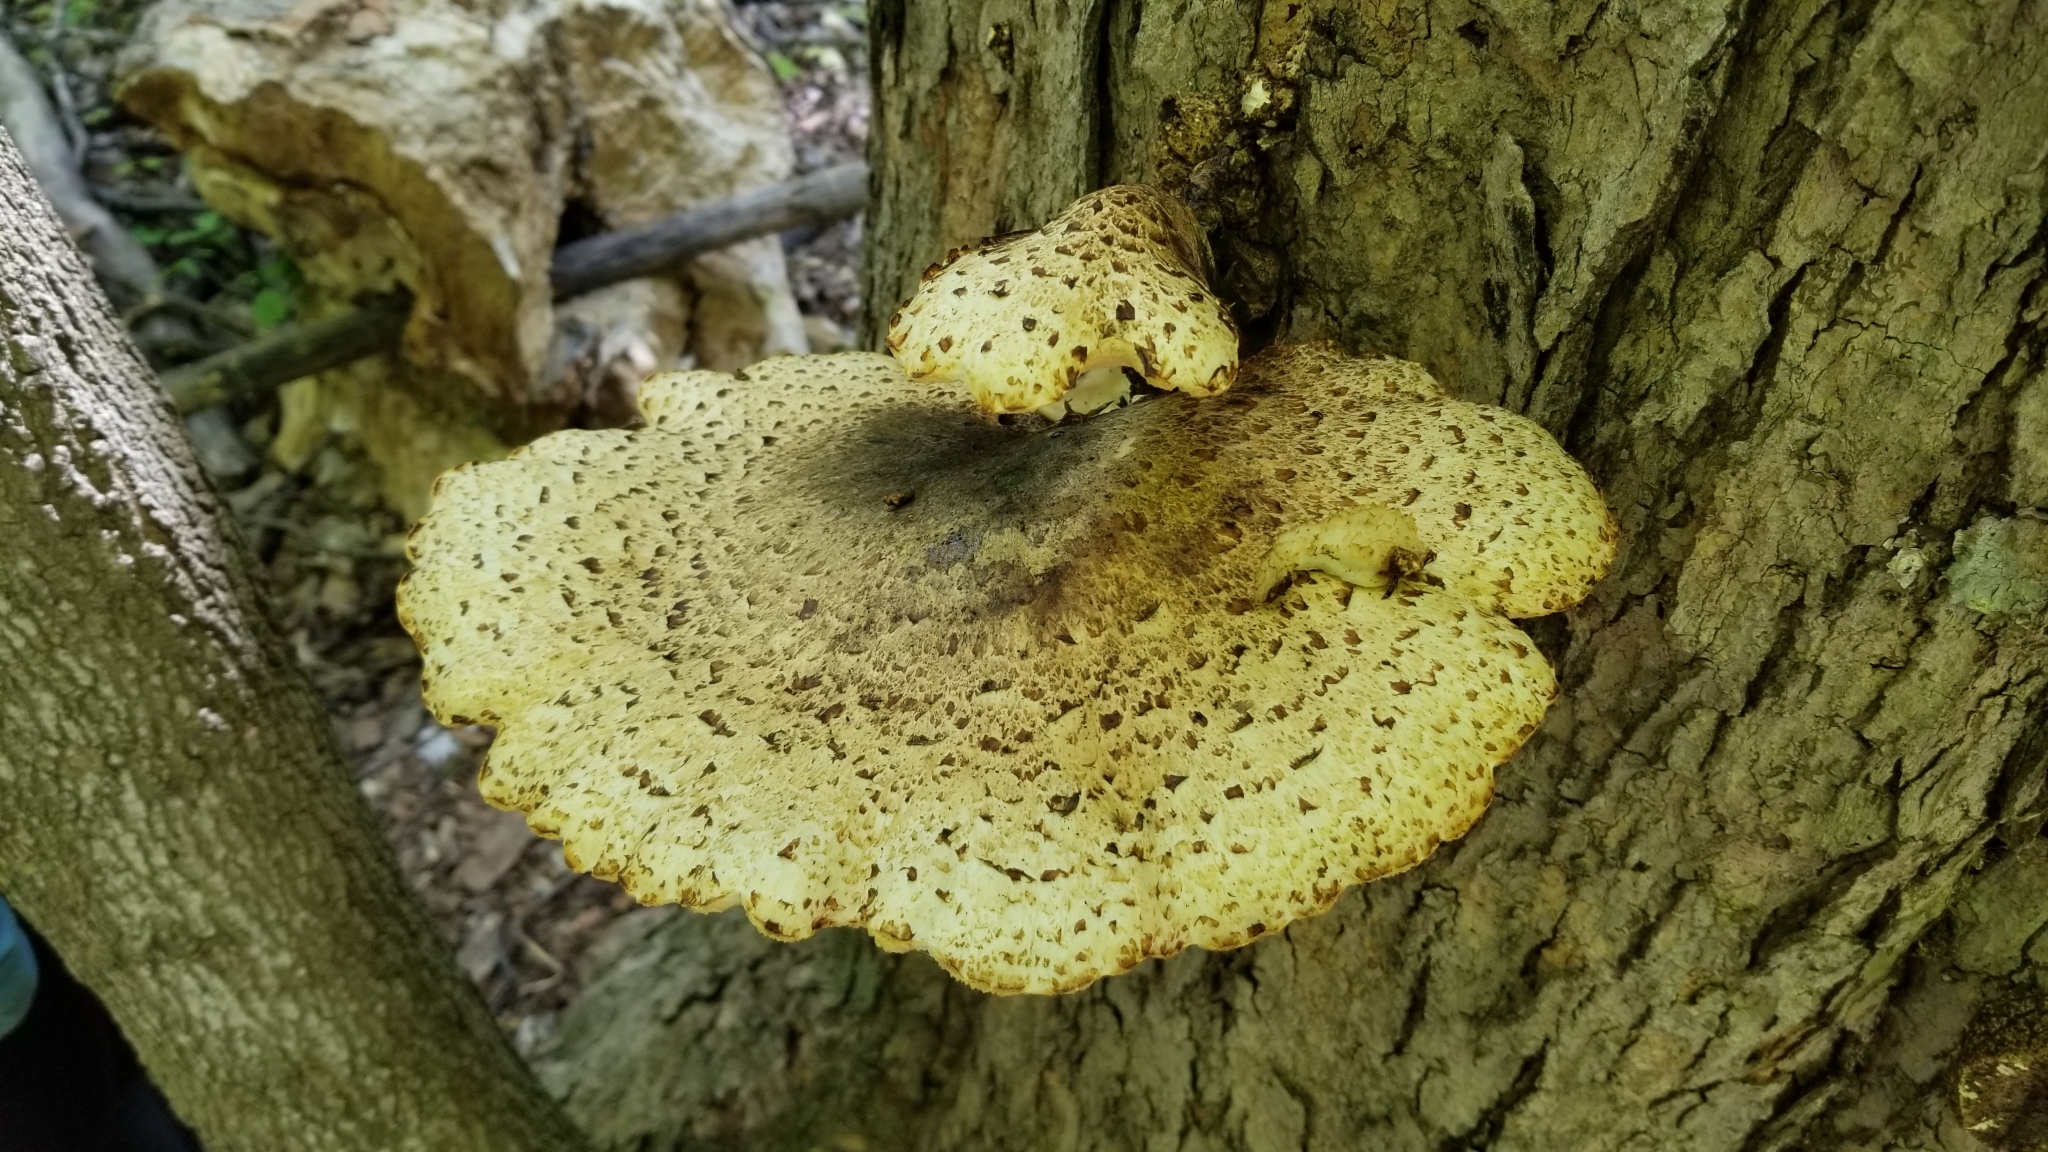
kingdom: Fungi
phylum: Basidiomycota
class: Agaricomycetes
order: Polyporales
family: Polyporaceae
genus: Cerioporus
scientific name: Cerioporus squamosus
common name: Dryad's saddle
